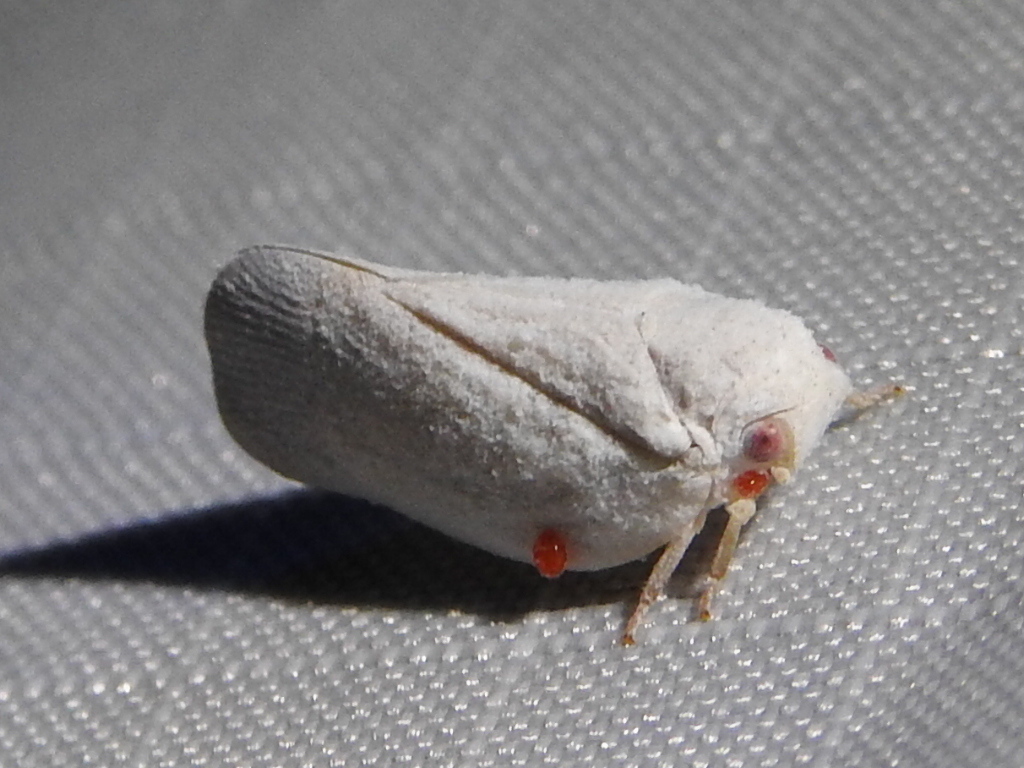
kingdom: Animalia
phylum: Arthropoda
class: Insecta
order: Hemiptera
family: Flatidae
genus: Flatormenis
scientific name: Flatormenis saucia
